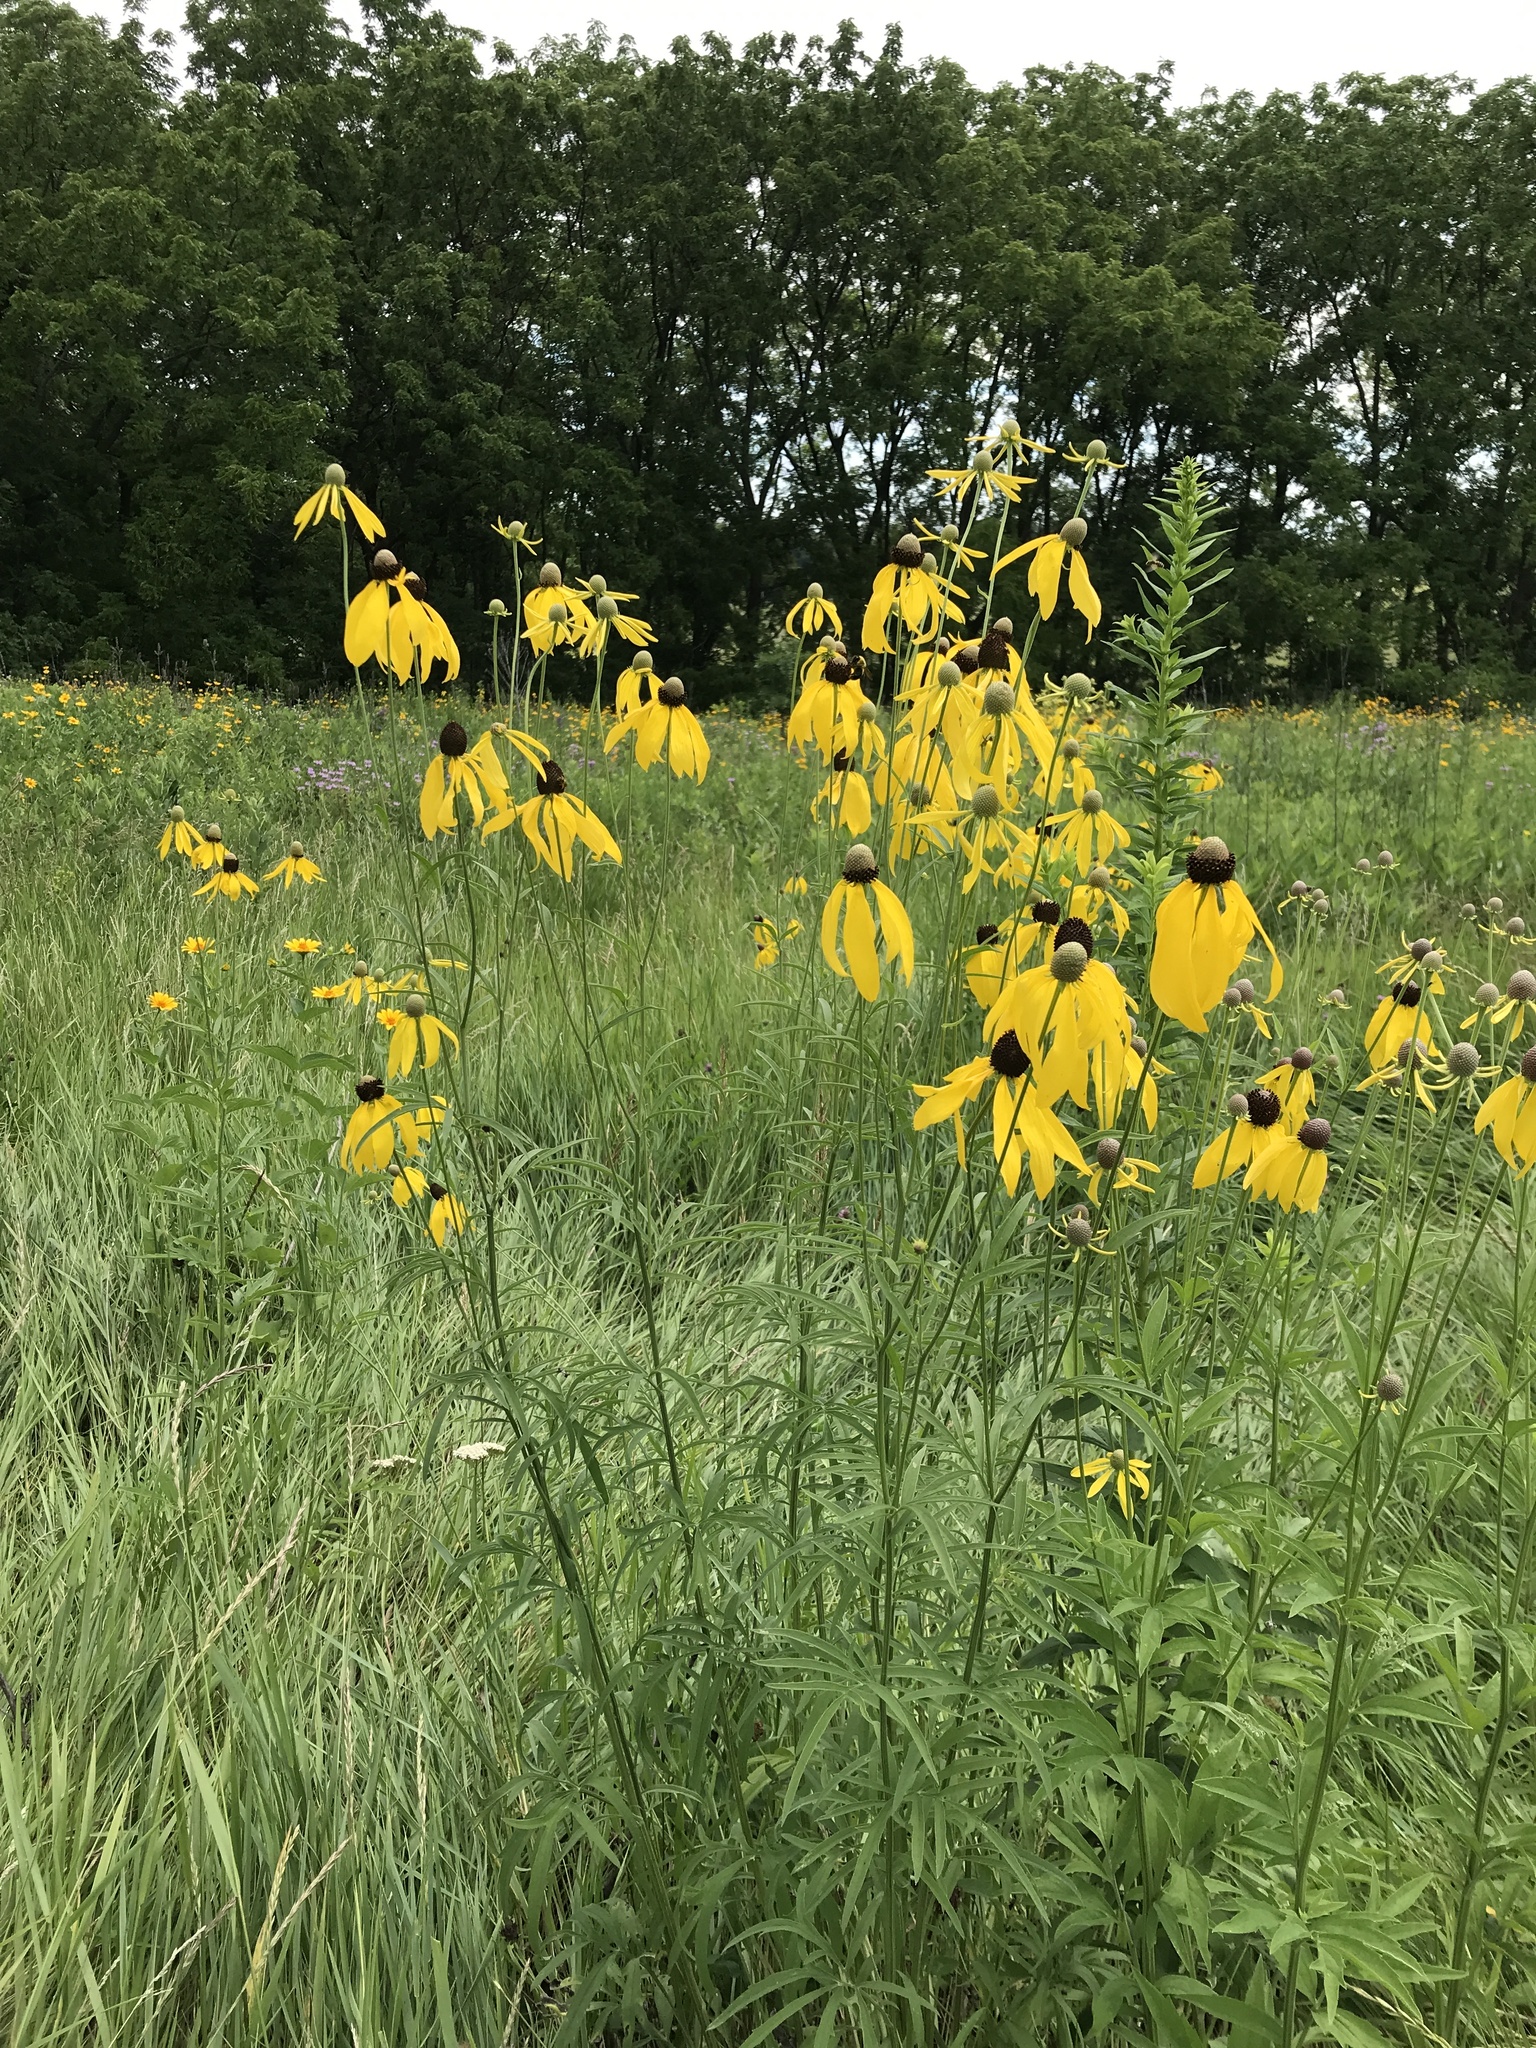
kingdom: Plantae
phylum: Tracheophyta
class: Magnoliopsida
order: Asterales
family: Asteraceae
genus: Ratibida
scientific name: Ratibida pinnata
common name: Drooping prairie-coneflower
